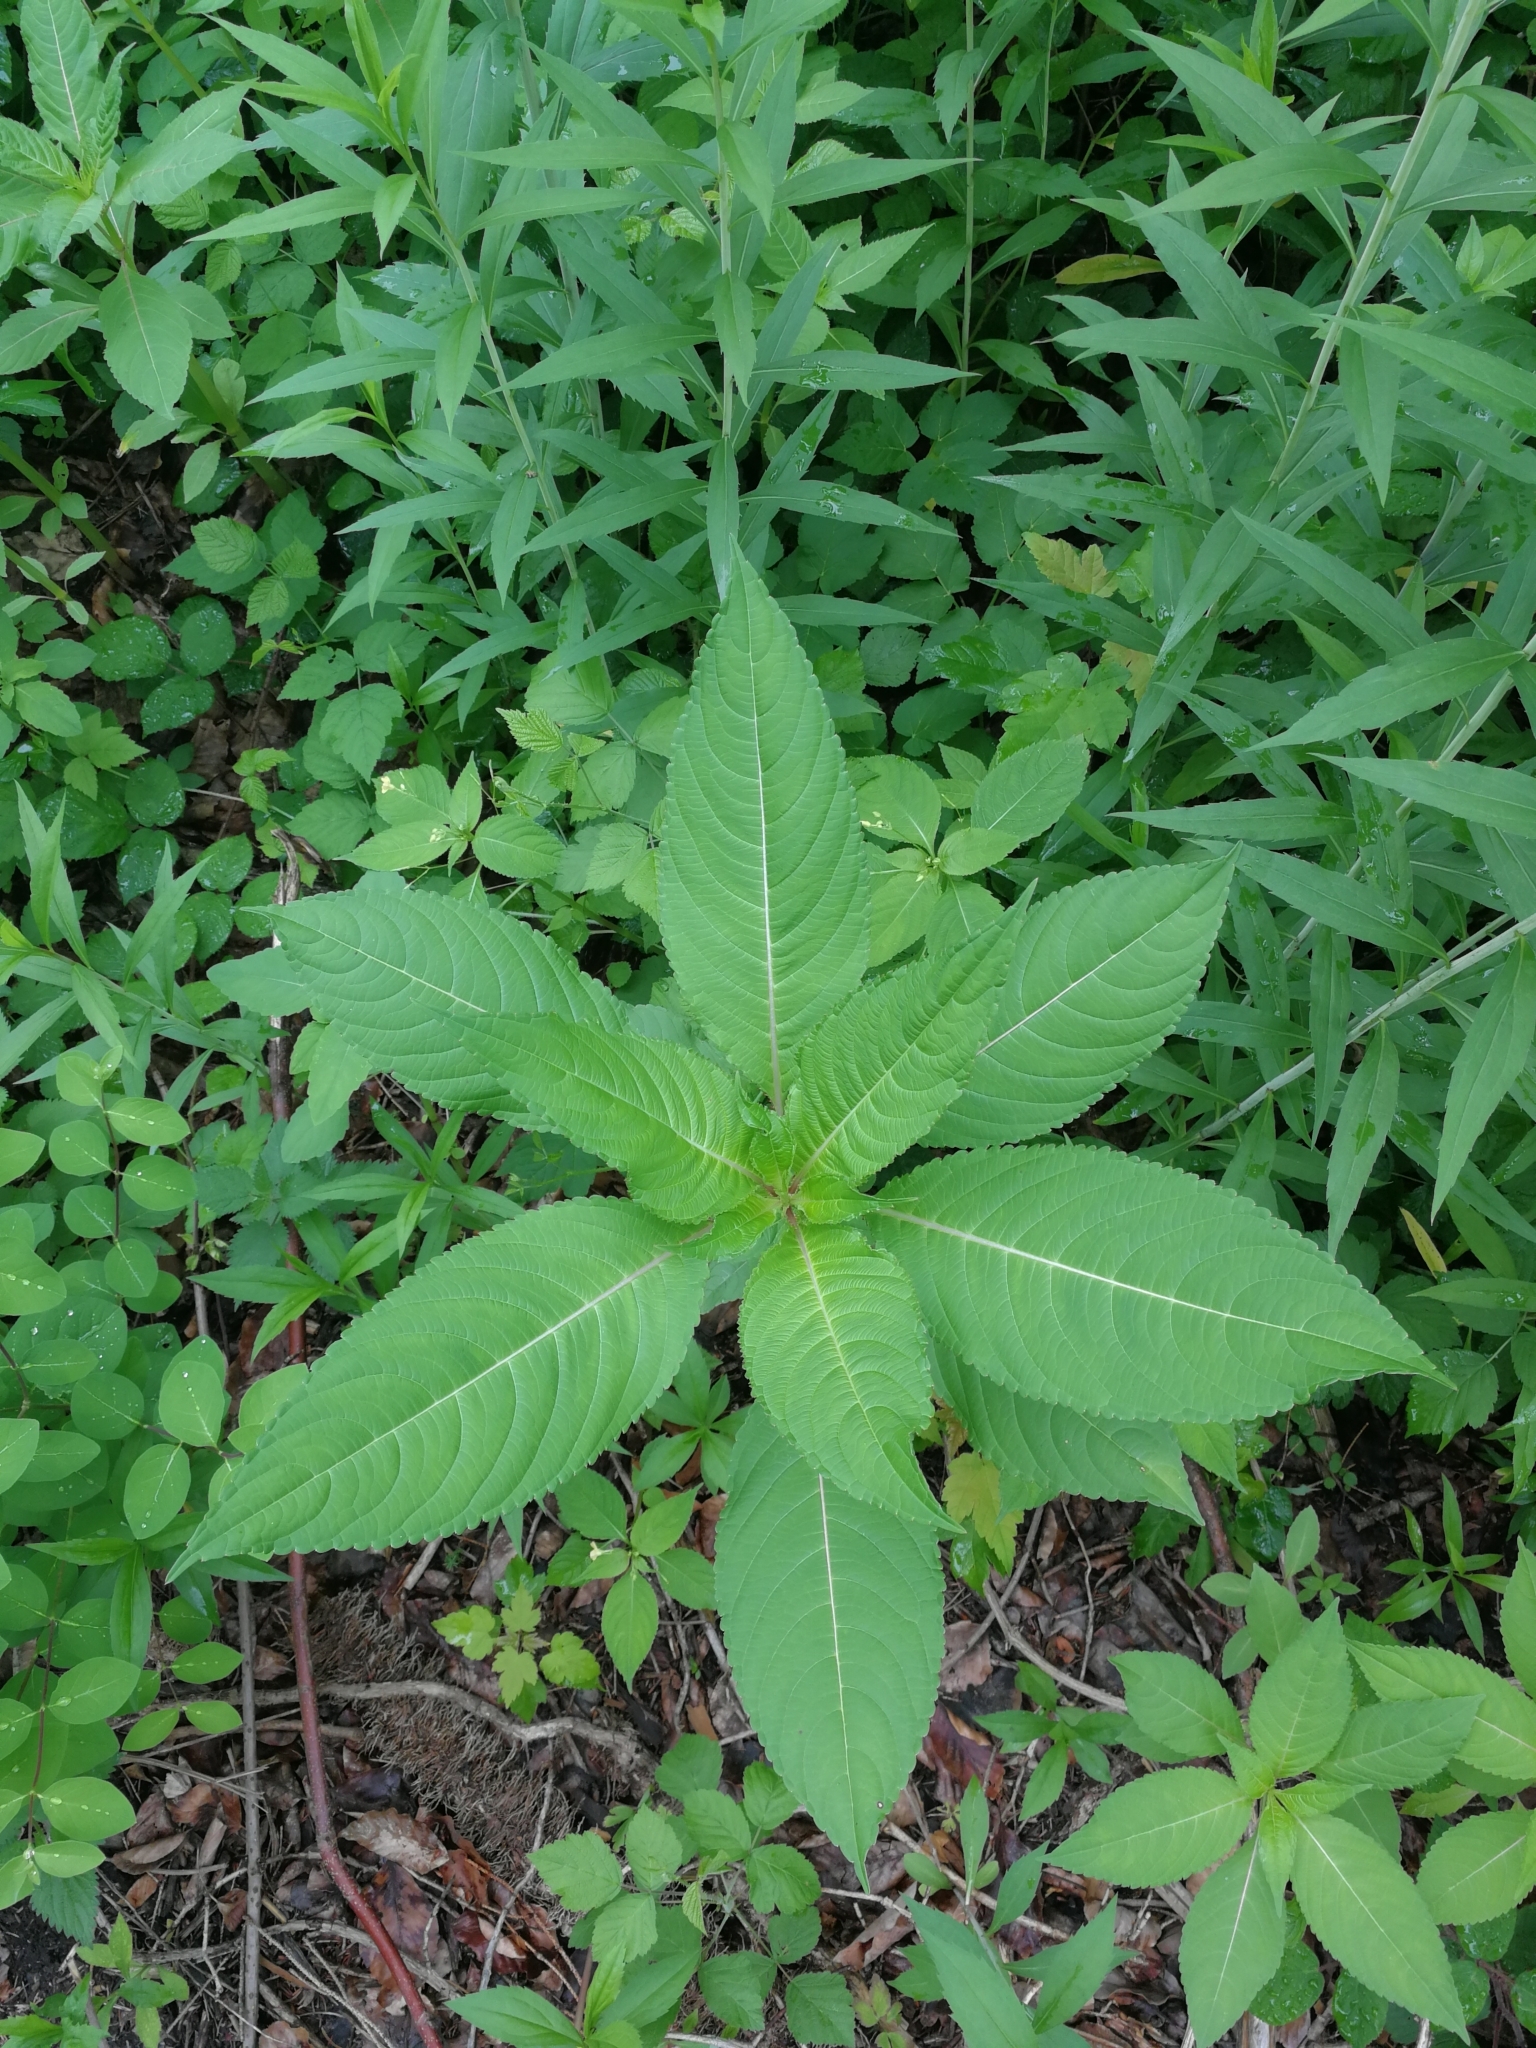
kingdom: Plantae
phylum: Tracheophyta
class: Magnoliopsida
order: Ericales
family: Balsaminaceae
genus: Impatiens
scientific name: Impatiens glandulifera
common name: Himalayan balsam
